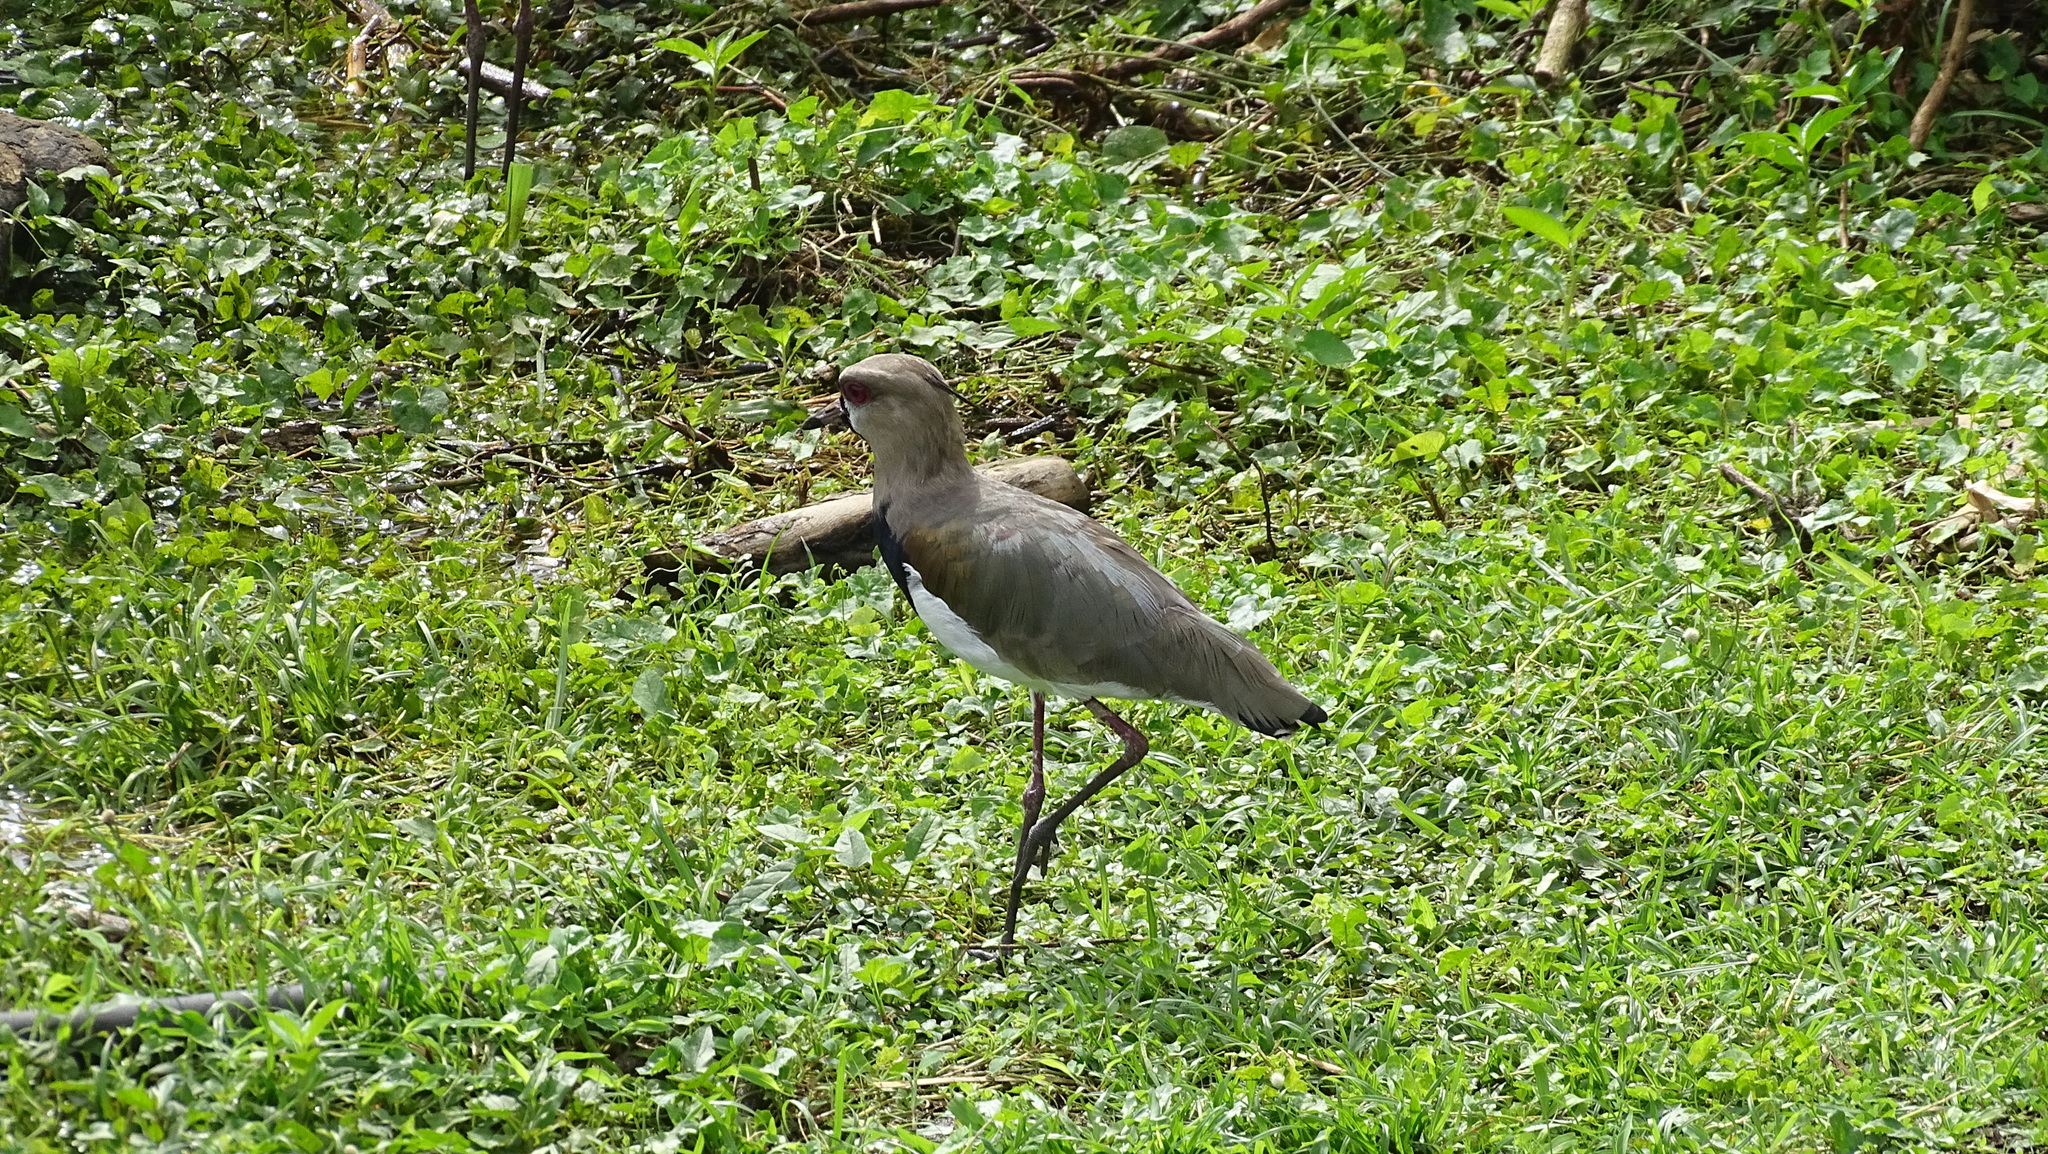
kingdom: Animalia
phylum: Chordata
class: Aves
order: Charadriiformes
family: Charadriidae
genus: Vanellus
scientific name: Vanellus chilensis
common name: Southern lapwing
